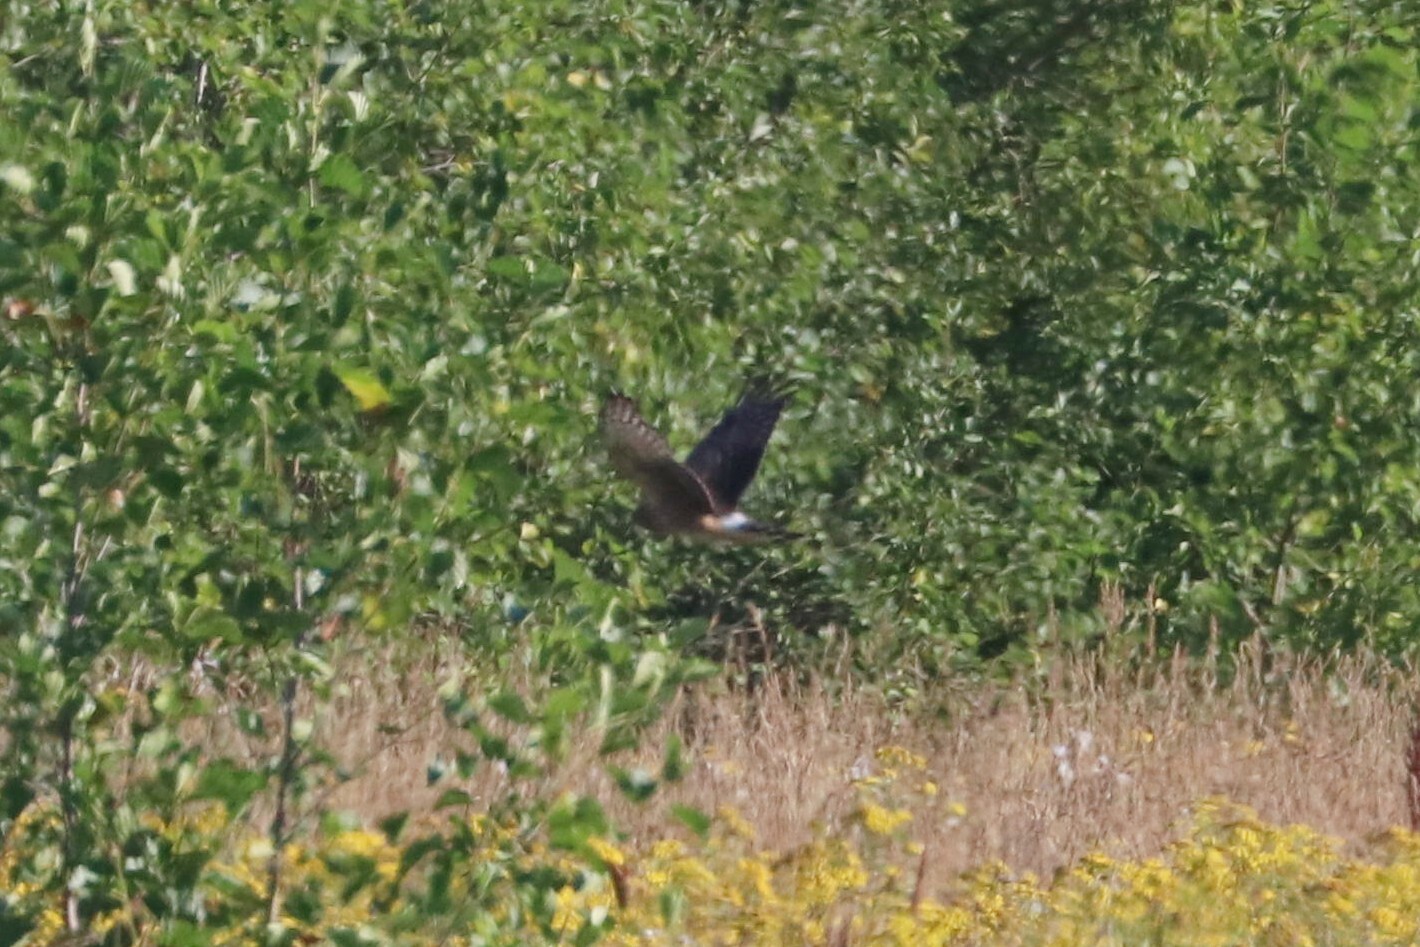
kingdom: Animalia
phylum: Chordata
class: Aves
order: Accipitriformes
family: Accipitridae
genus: Circus
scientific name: Circus cyaneus
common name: Hen harrier
